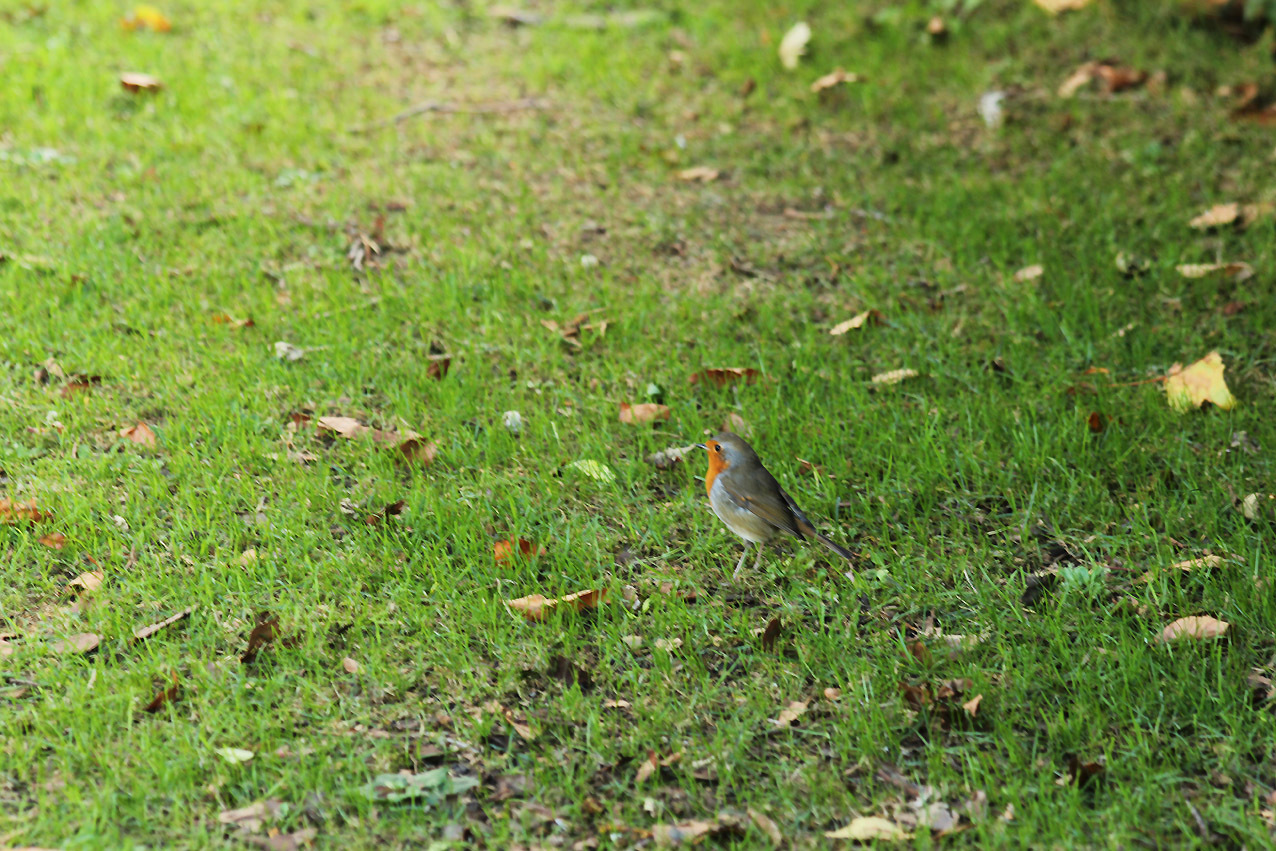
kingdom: Animalia
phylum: Chordata
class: Aves
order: Passeriformes
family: Muscicapidae
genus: Erithacus
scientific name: Erithacus rubecula
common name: European robin
